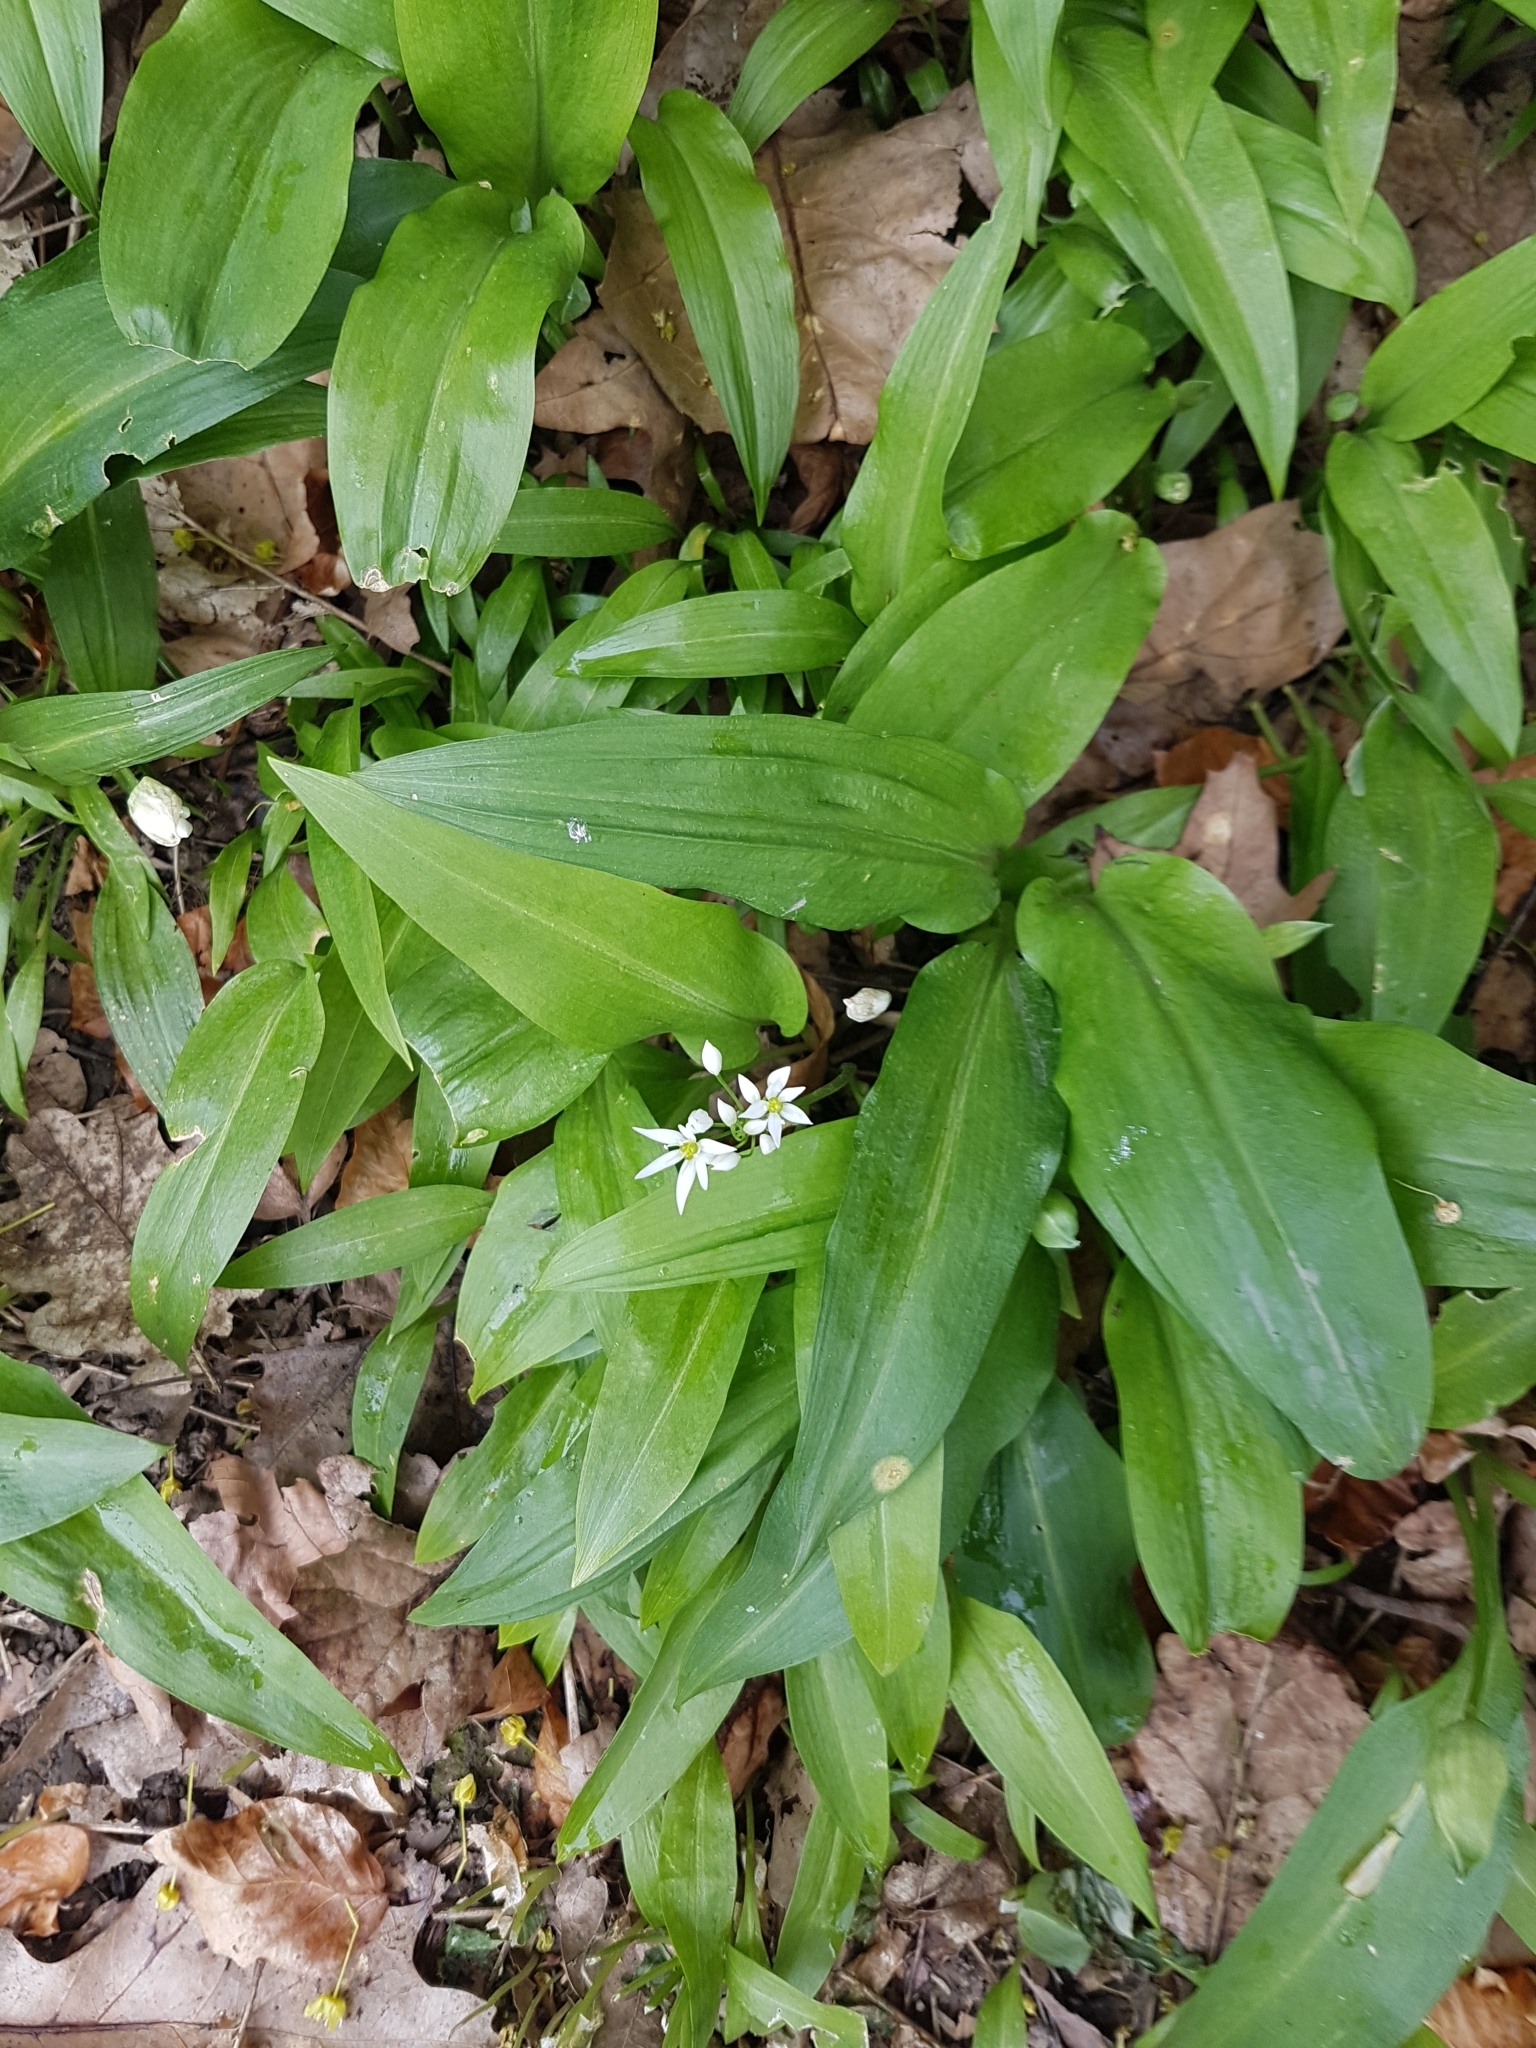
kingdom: Plantae
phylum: Tracheophyta
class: Liliopsida
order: Asparagales
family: Amaryllidaceae
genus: Allium
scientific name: Allium ursinum
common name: Ramsons
